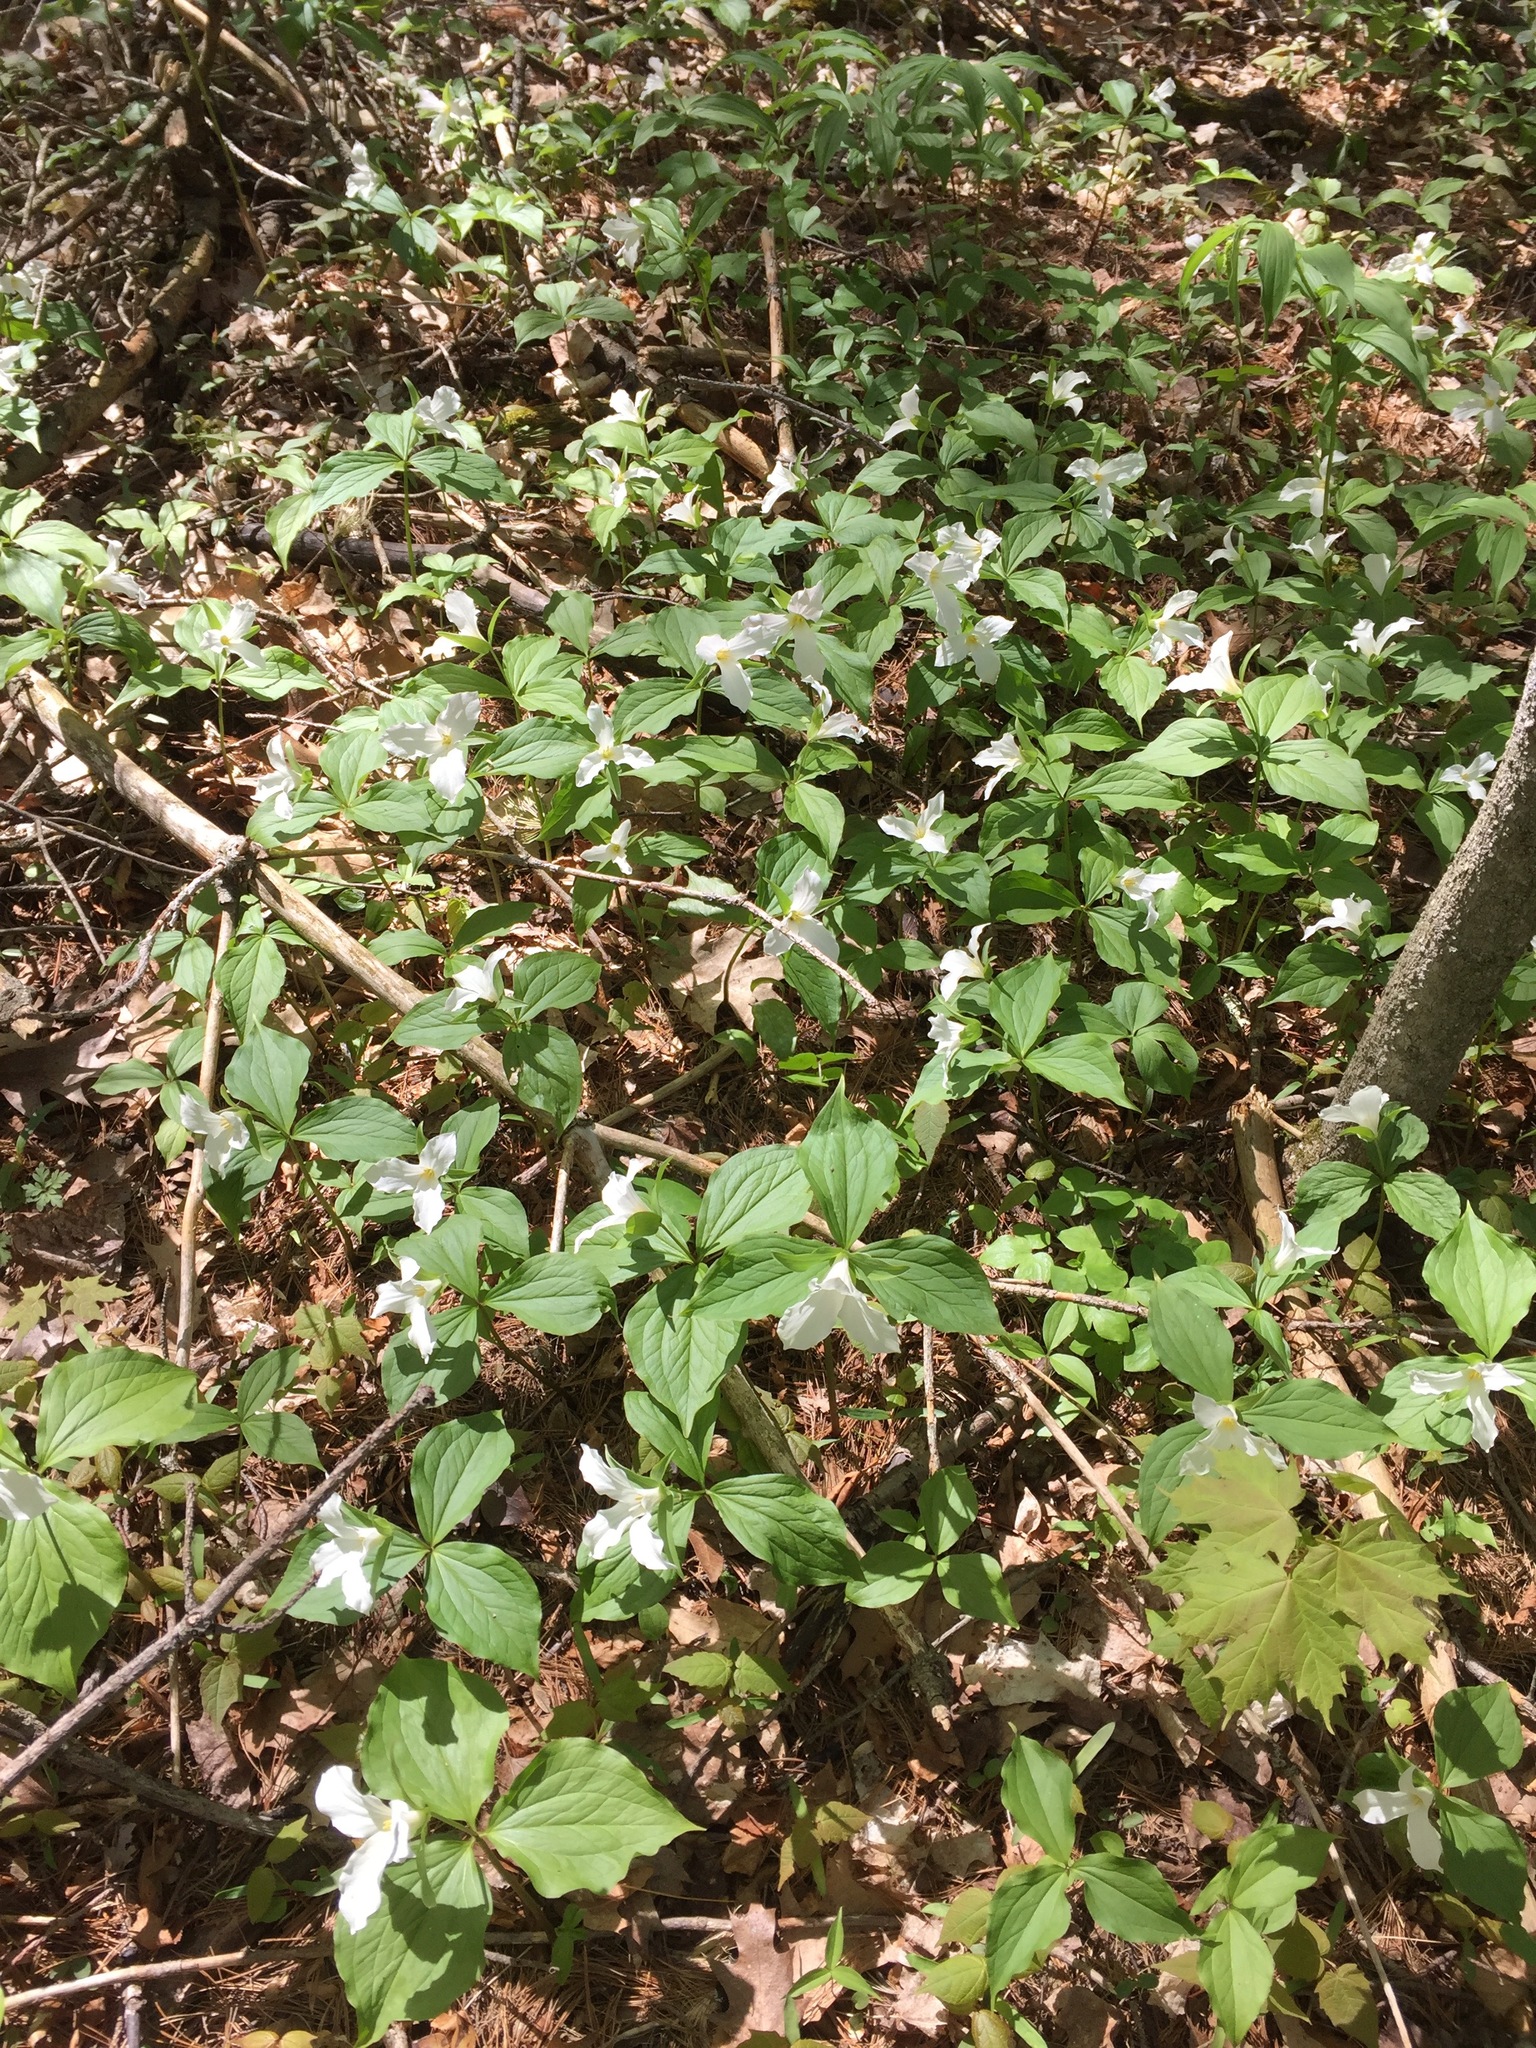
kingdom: Plantae
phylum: Tracheophyta
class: Liliopsida
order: Liliales
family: Melanthiaceae
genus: Trillium
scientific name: Trillium grandiflorum
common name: Great white trillium
